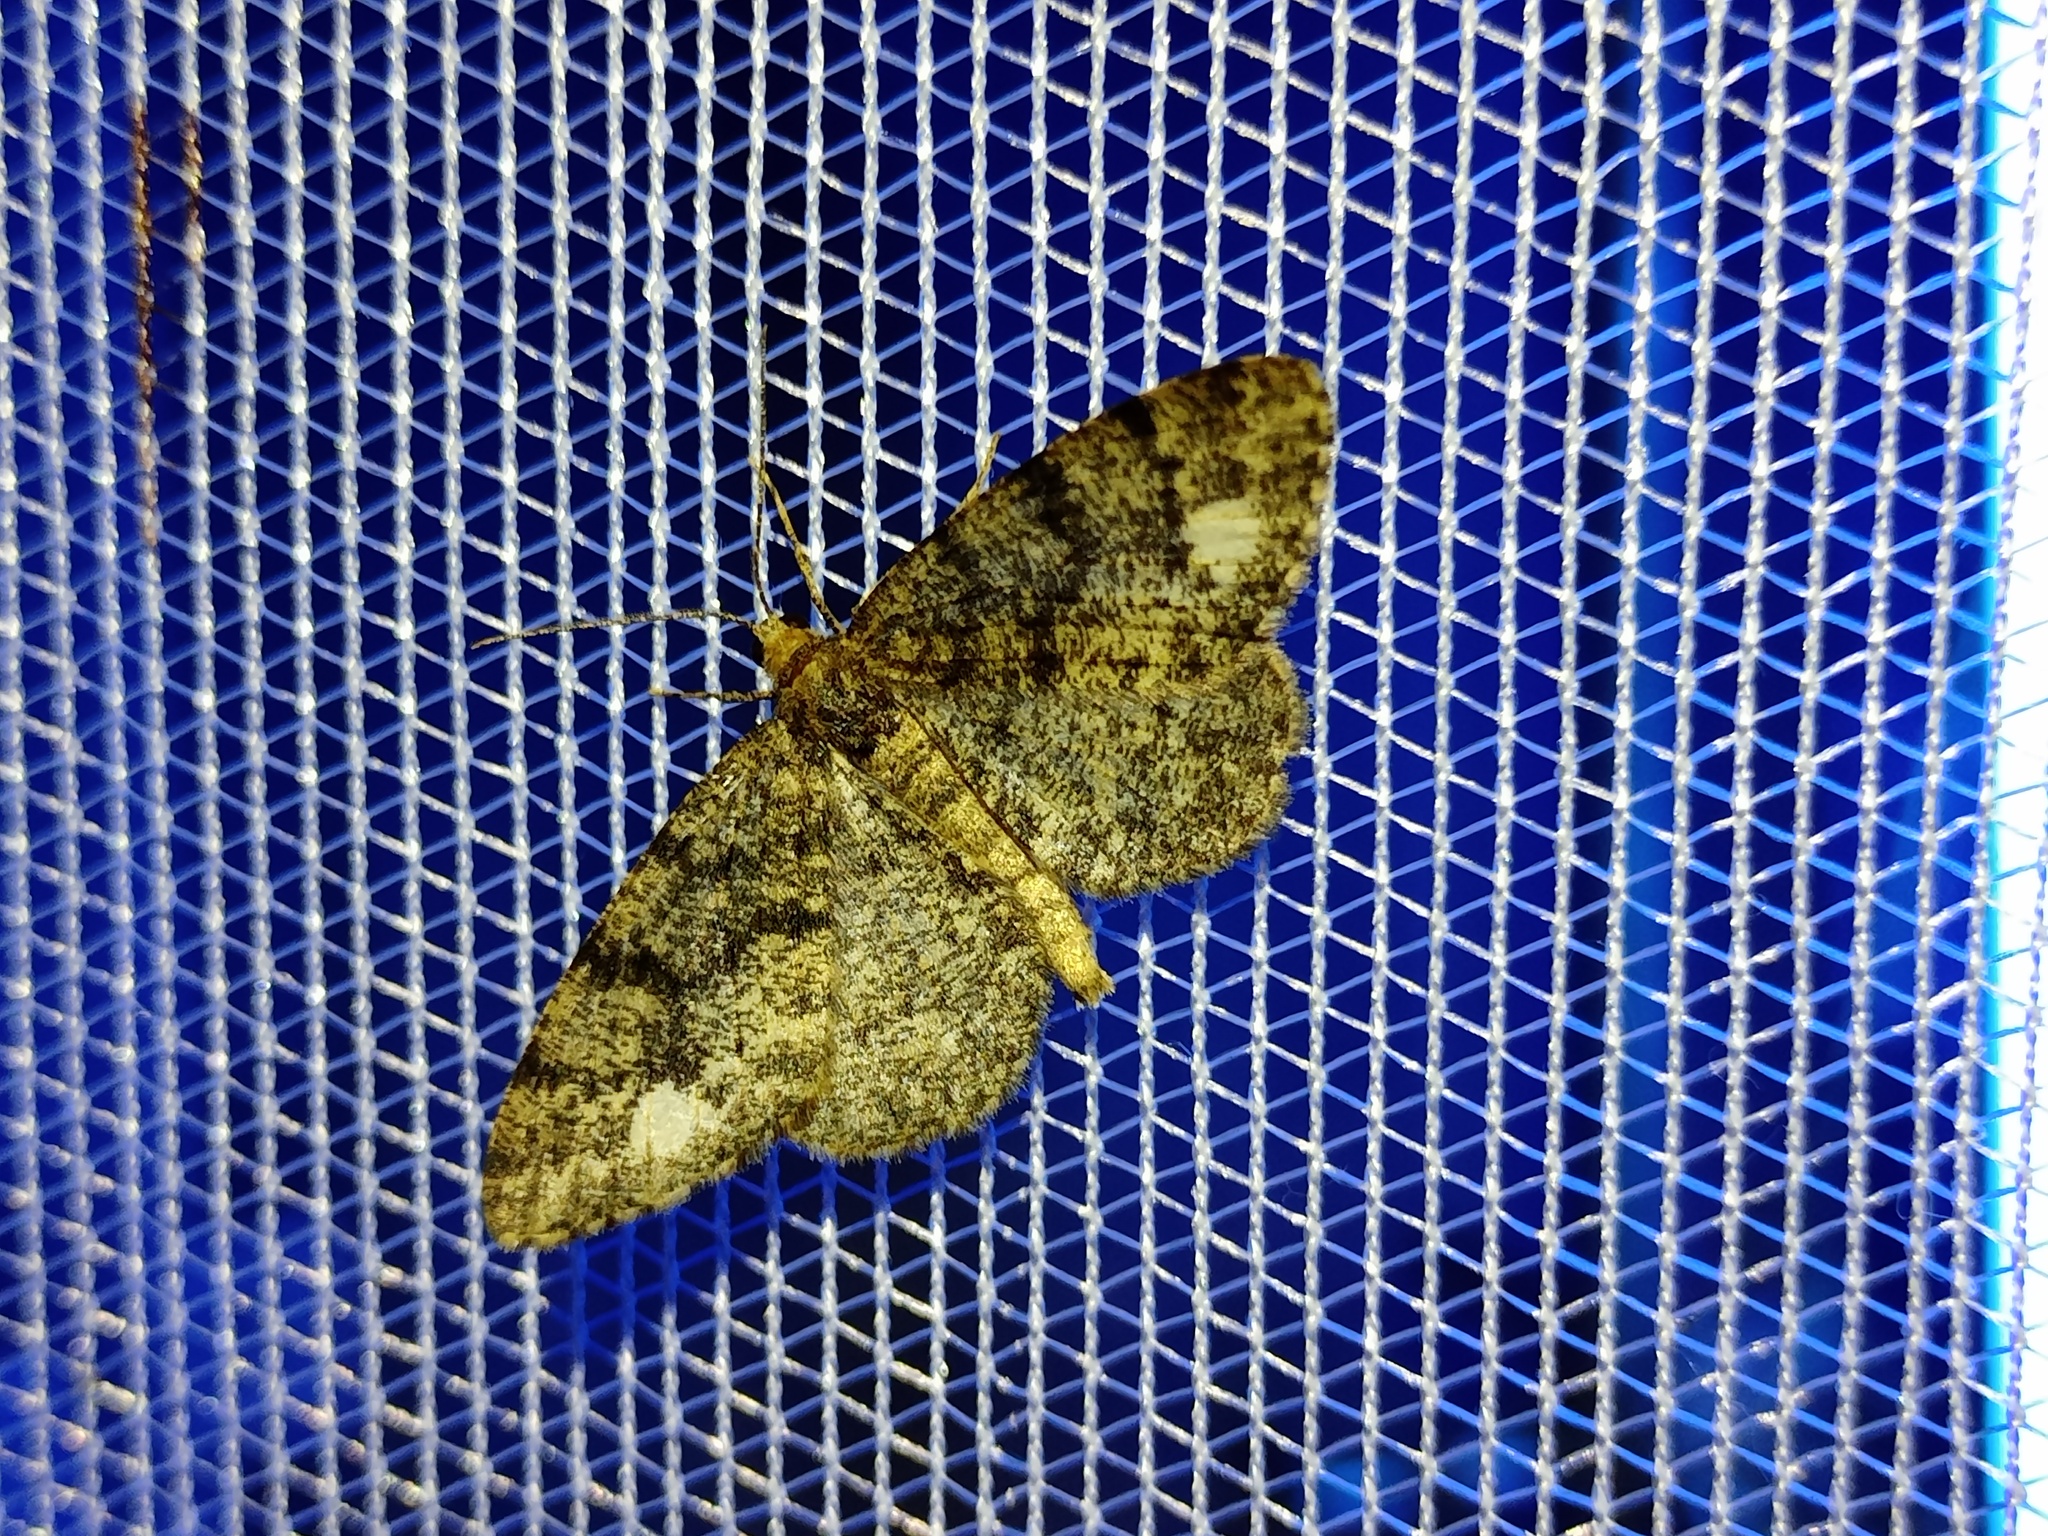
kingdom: Animalia
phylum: Arthropoda
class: Insecta
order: Lepidoptera
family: Geometridae
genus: Parectropis
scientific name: Parectropis similaria
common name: Brindled white-spot
